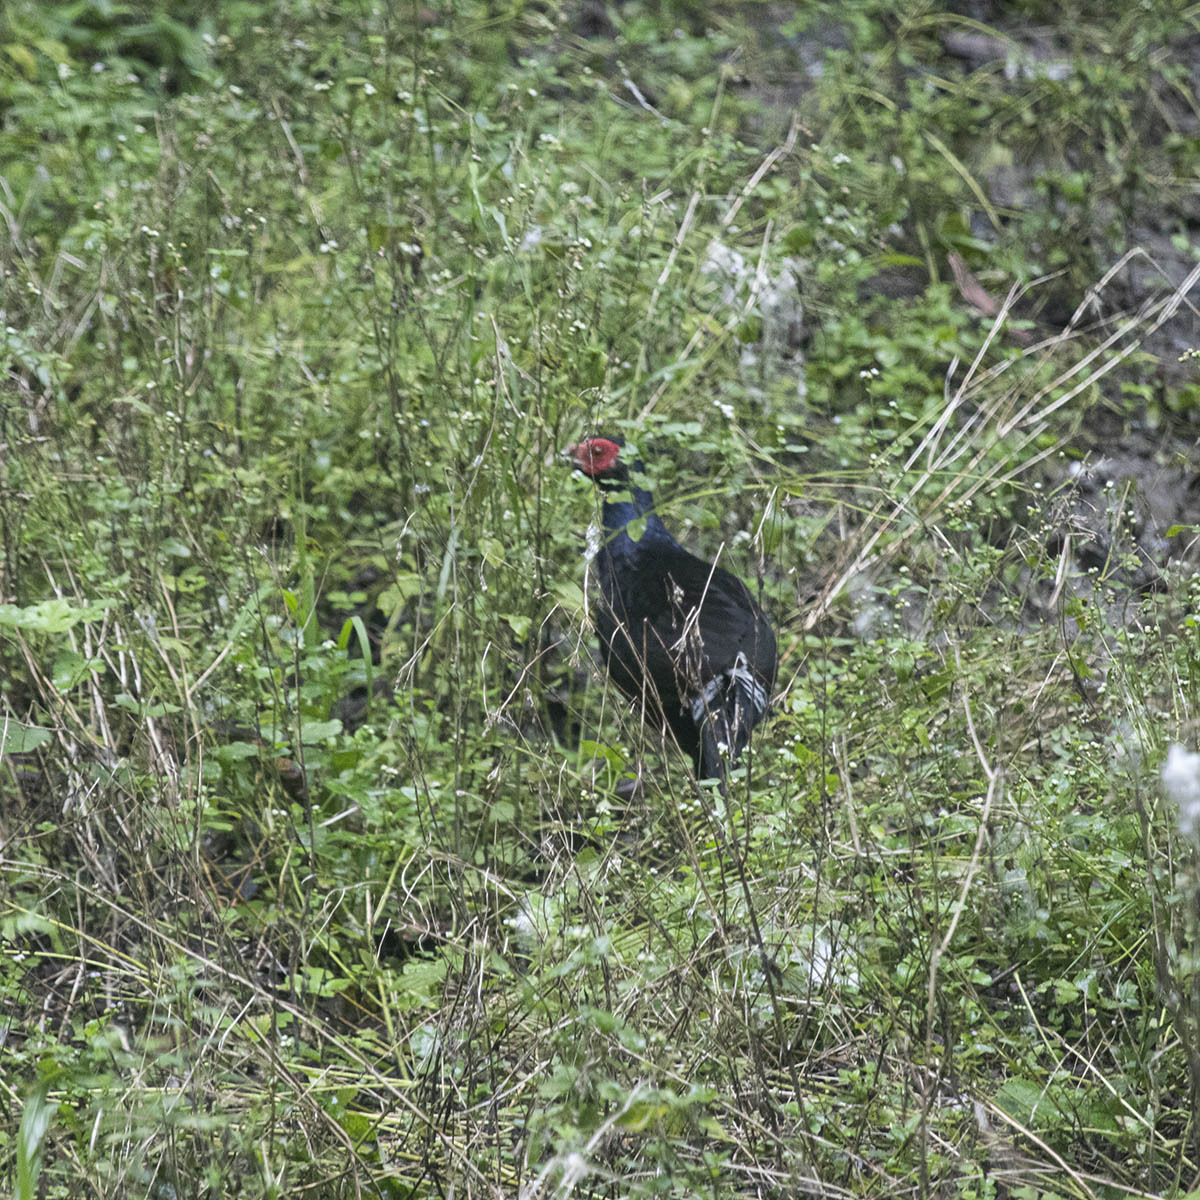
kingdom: Animalia
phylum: Chordata
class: Aves
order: Galliformes
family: Phasianidae
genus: Lophura
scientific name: Lophura leucomelanos
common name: Kalij pheasant
